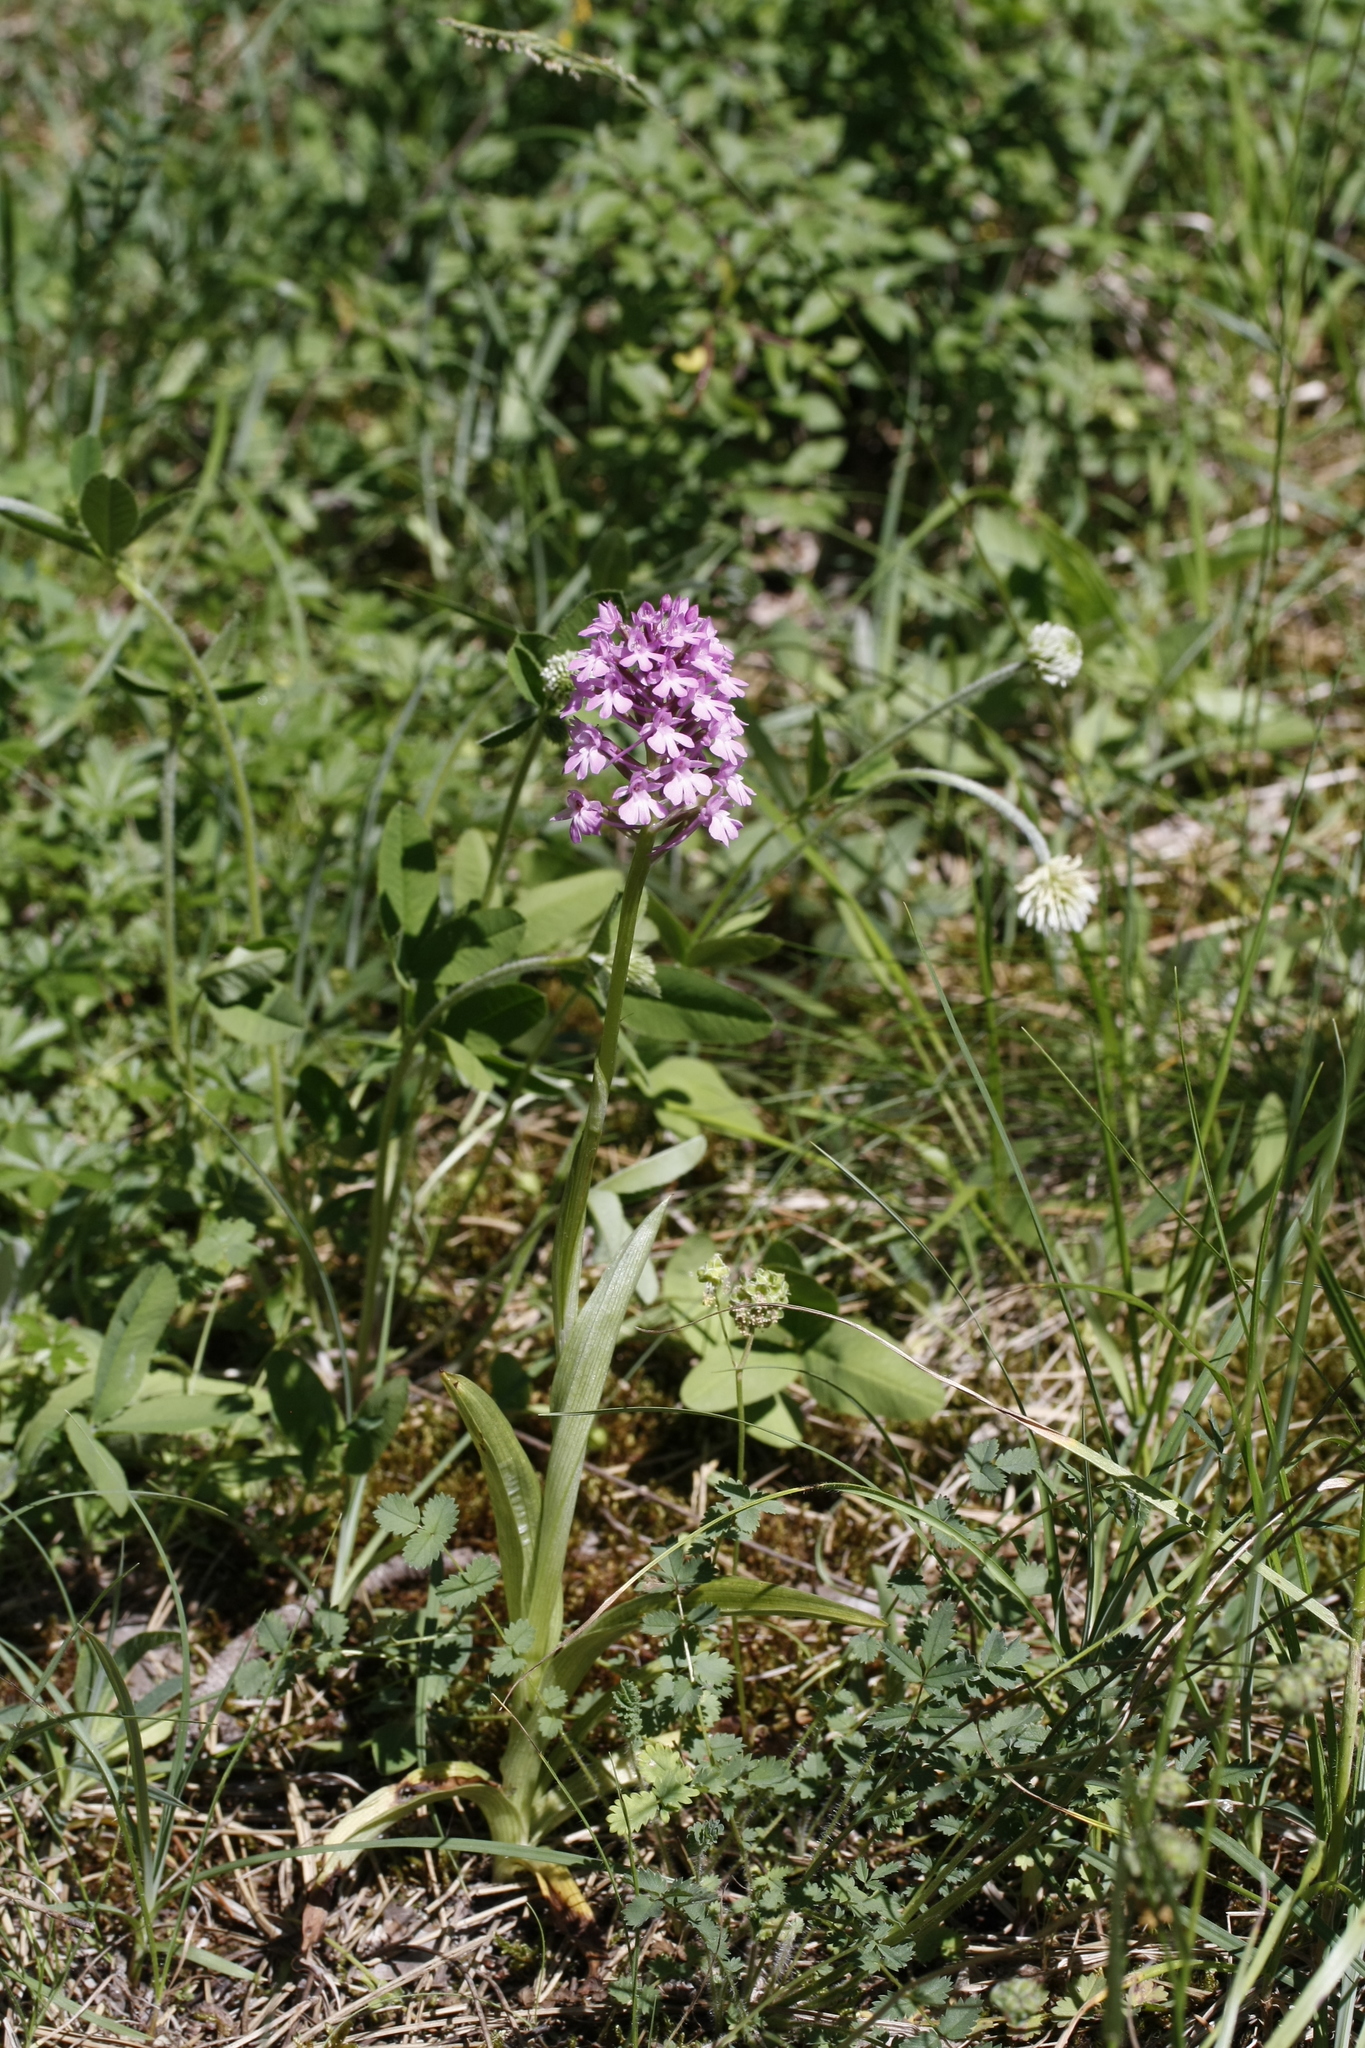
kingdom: Plantae
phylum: Tracheophyta
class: Liliopsida
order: Asparagales
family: Orchidaceae
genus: Anacamptis
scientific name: Anacamptis pyramidalis
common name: Pyramidal orchid
